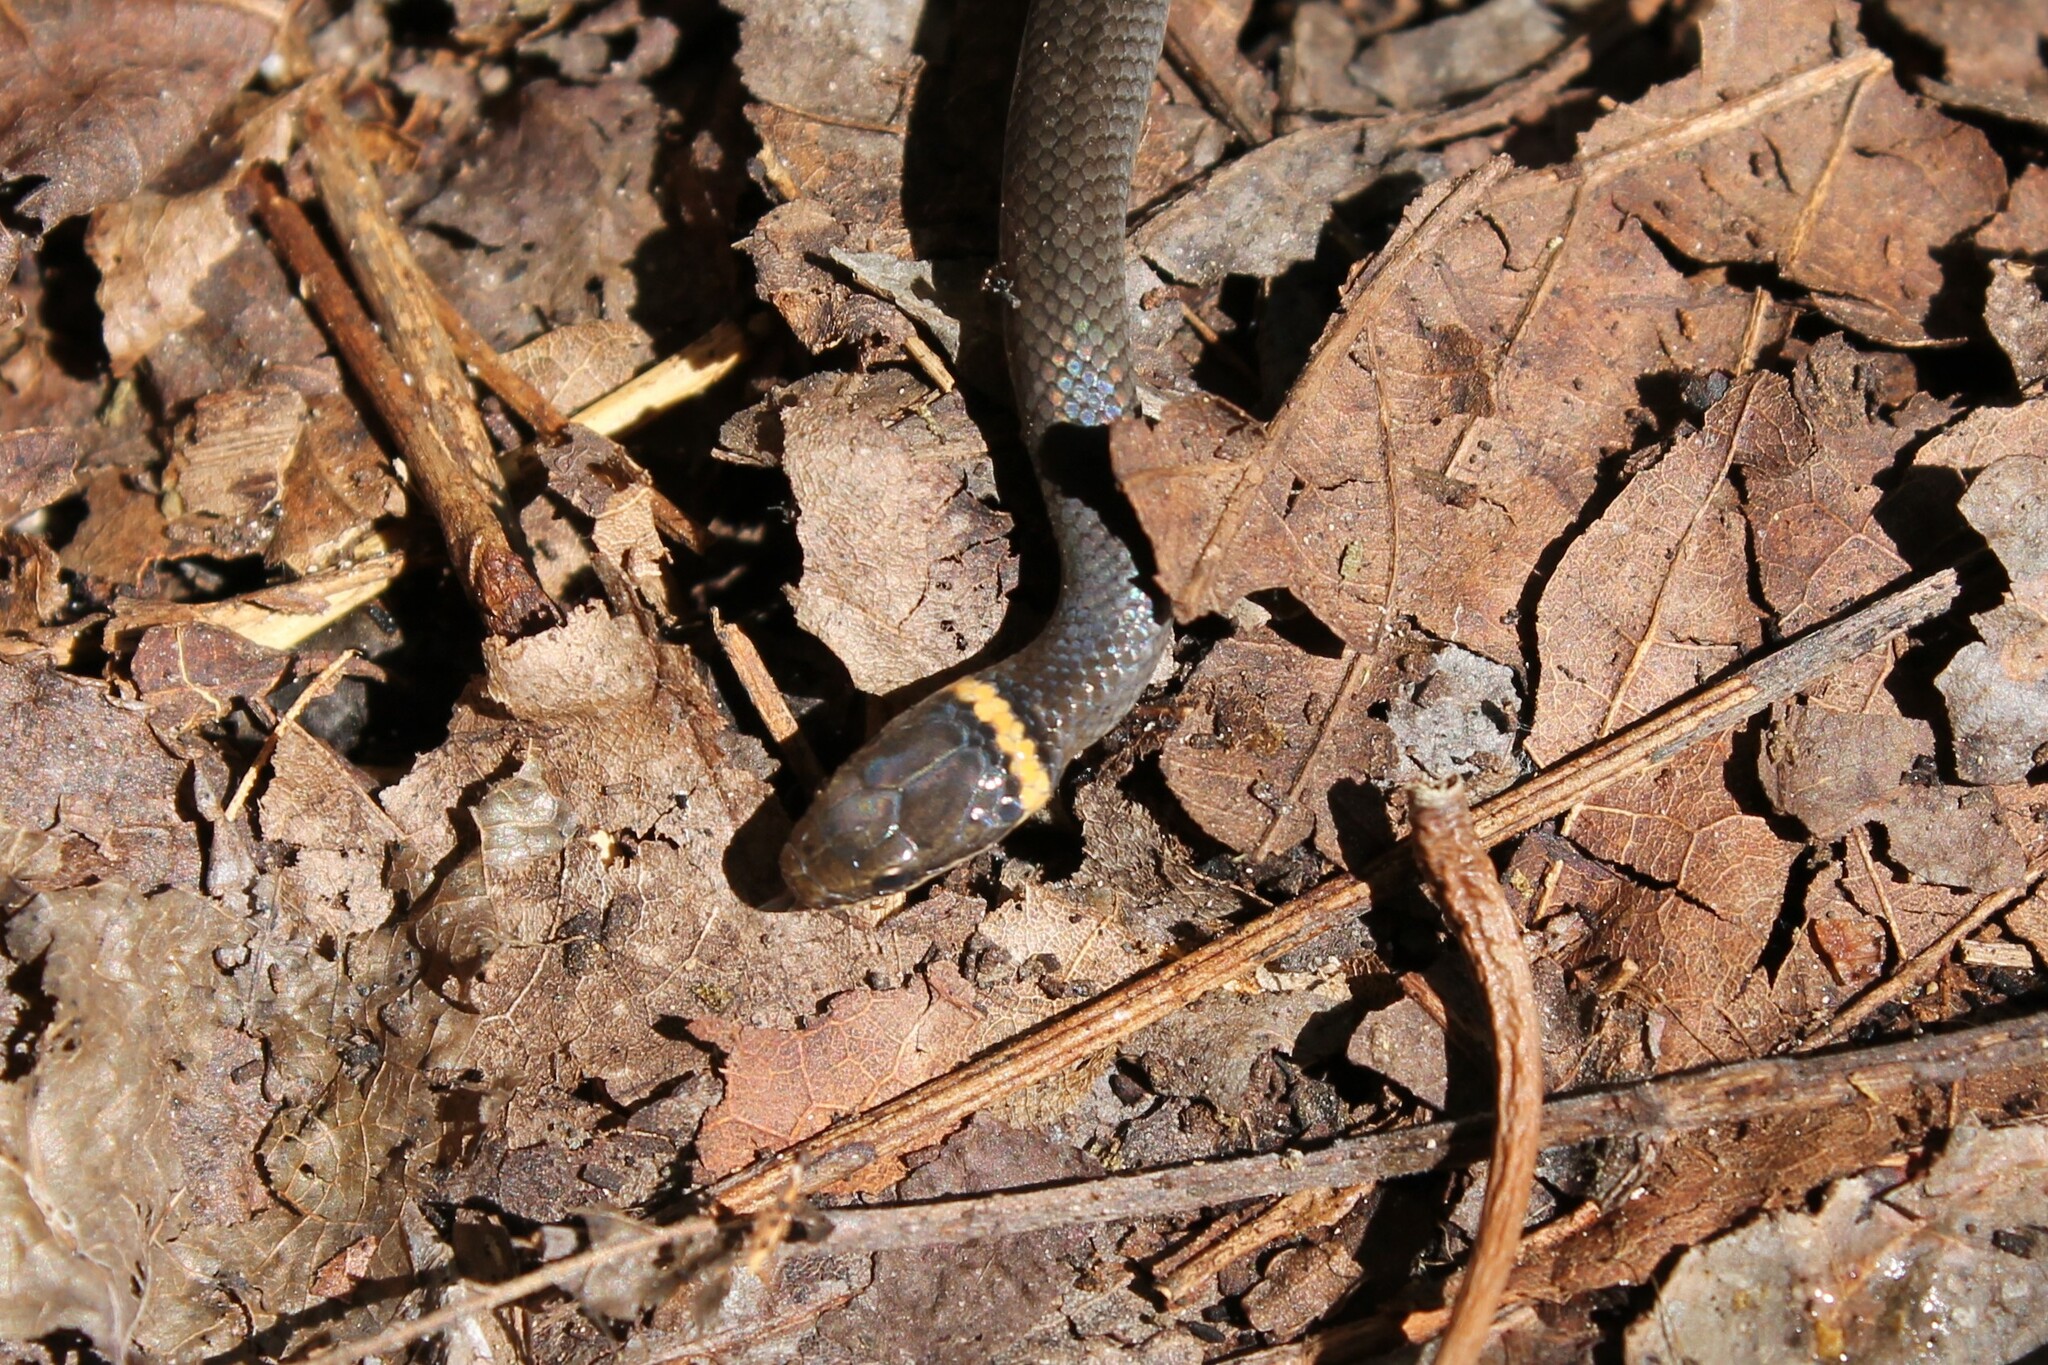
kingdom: Animalia
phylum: Chordata
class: Squamata
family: Colubridae
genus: Diadophis
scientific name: Diadophis punctatus
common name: Ringneck snake
